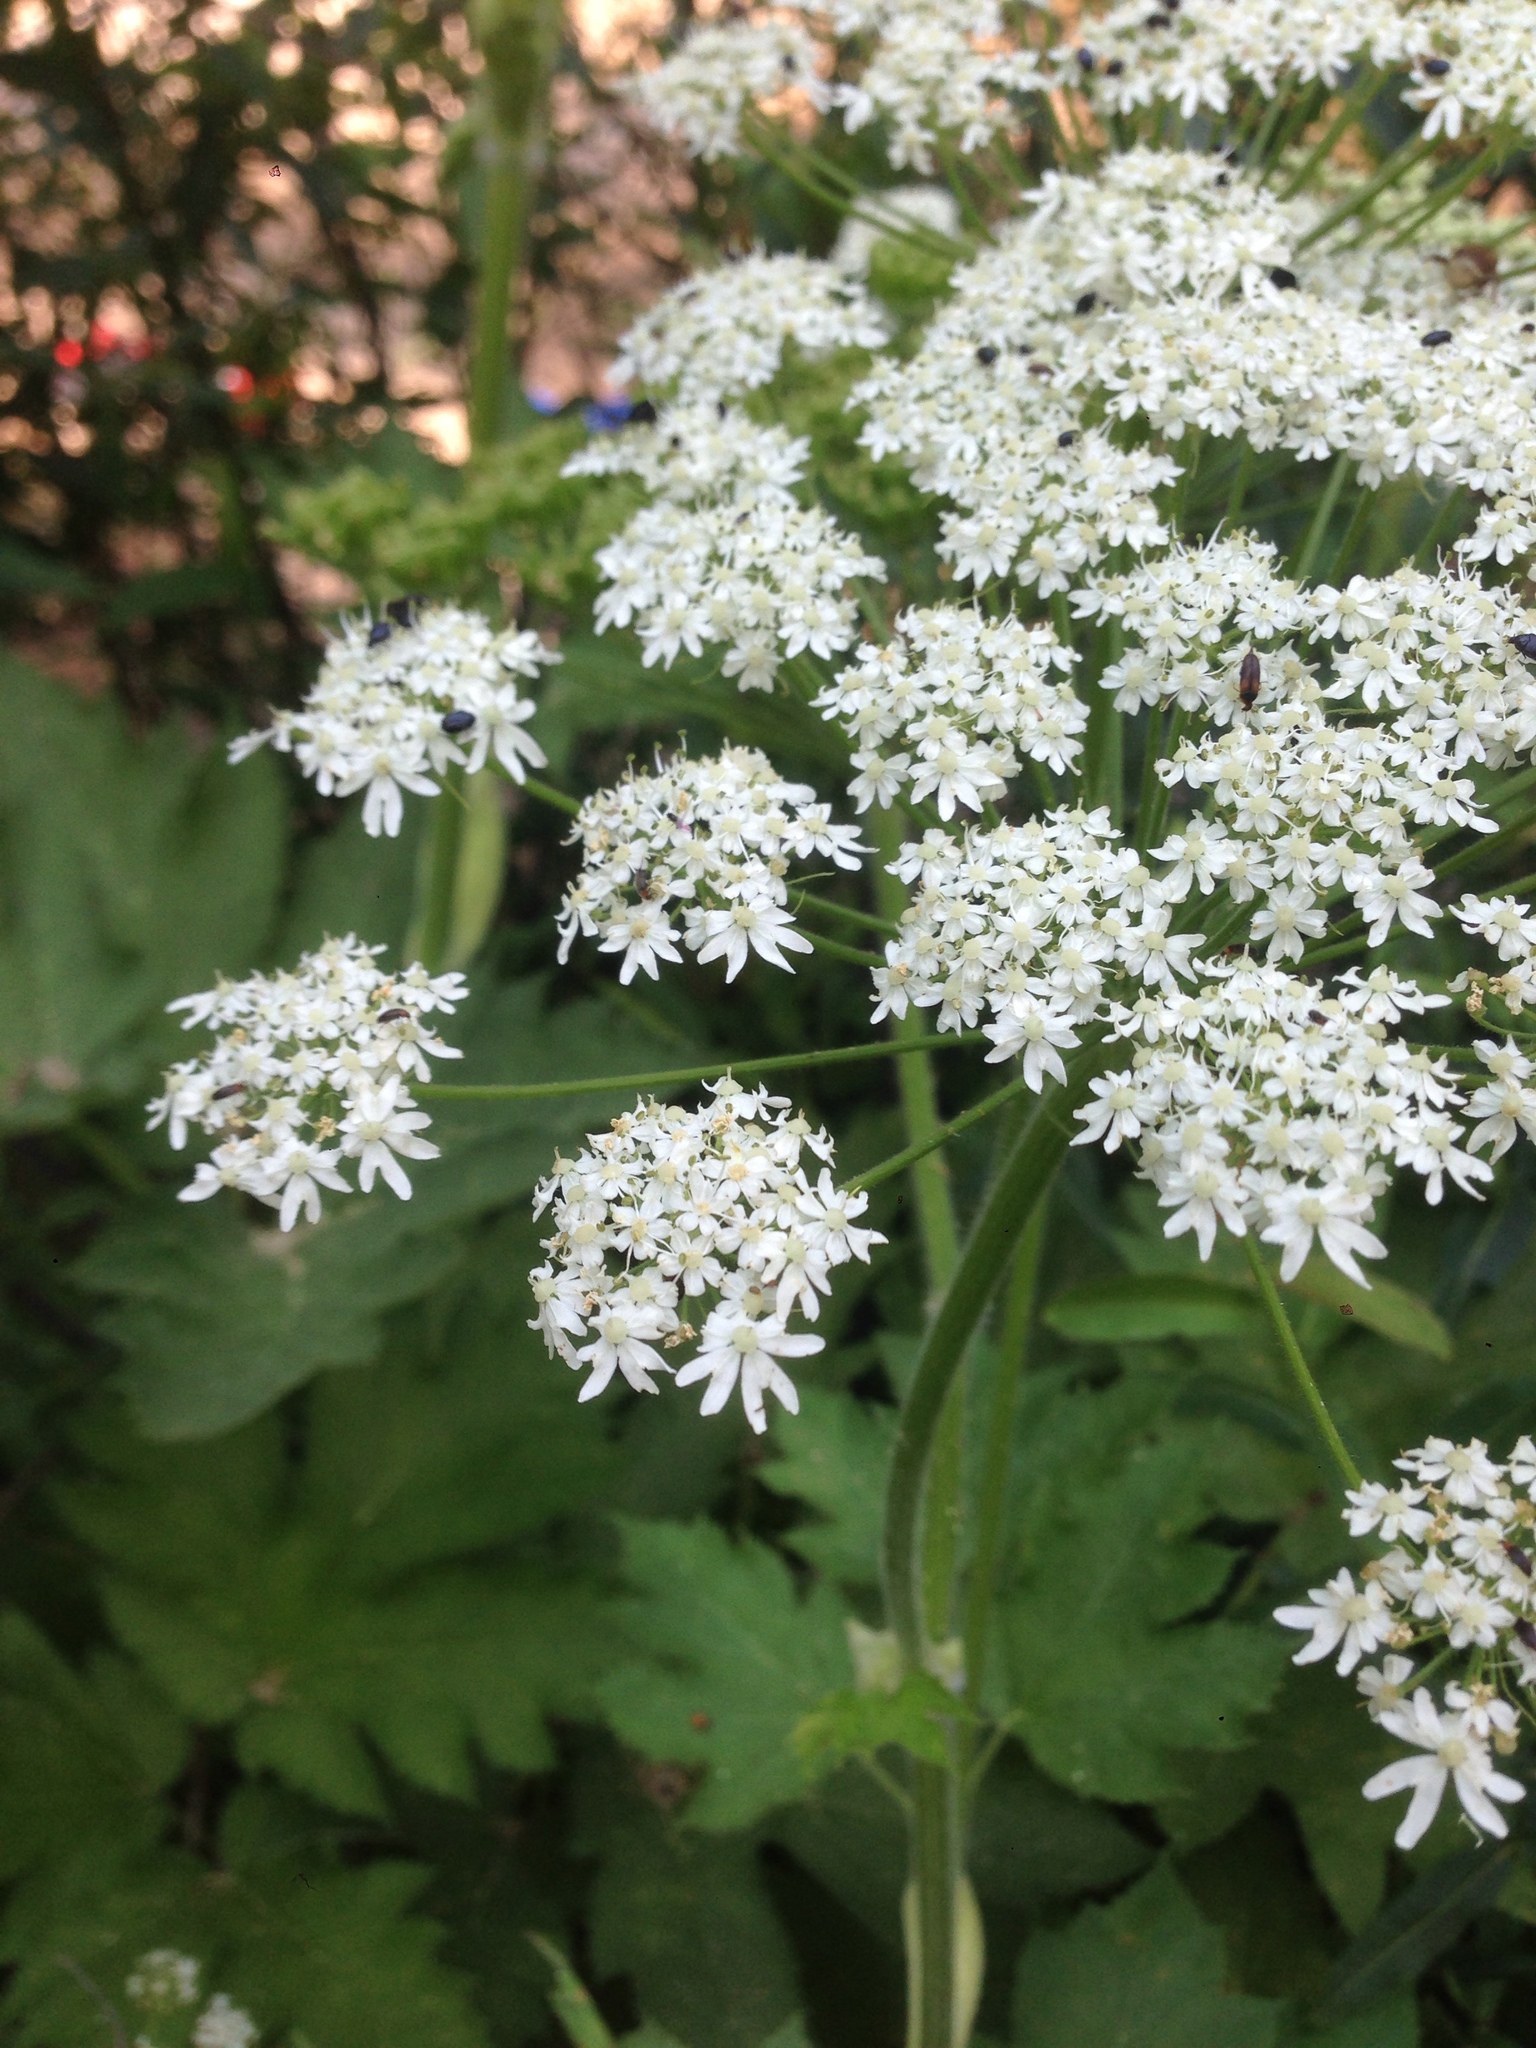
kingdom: Plantae
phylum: Tracheophyta
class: Magnoliopsida
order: Apiales
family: Apiaceae
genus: Heracleum
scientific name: Heracleum maximum
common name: American cow parsnip
